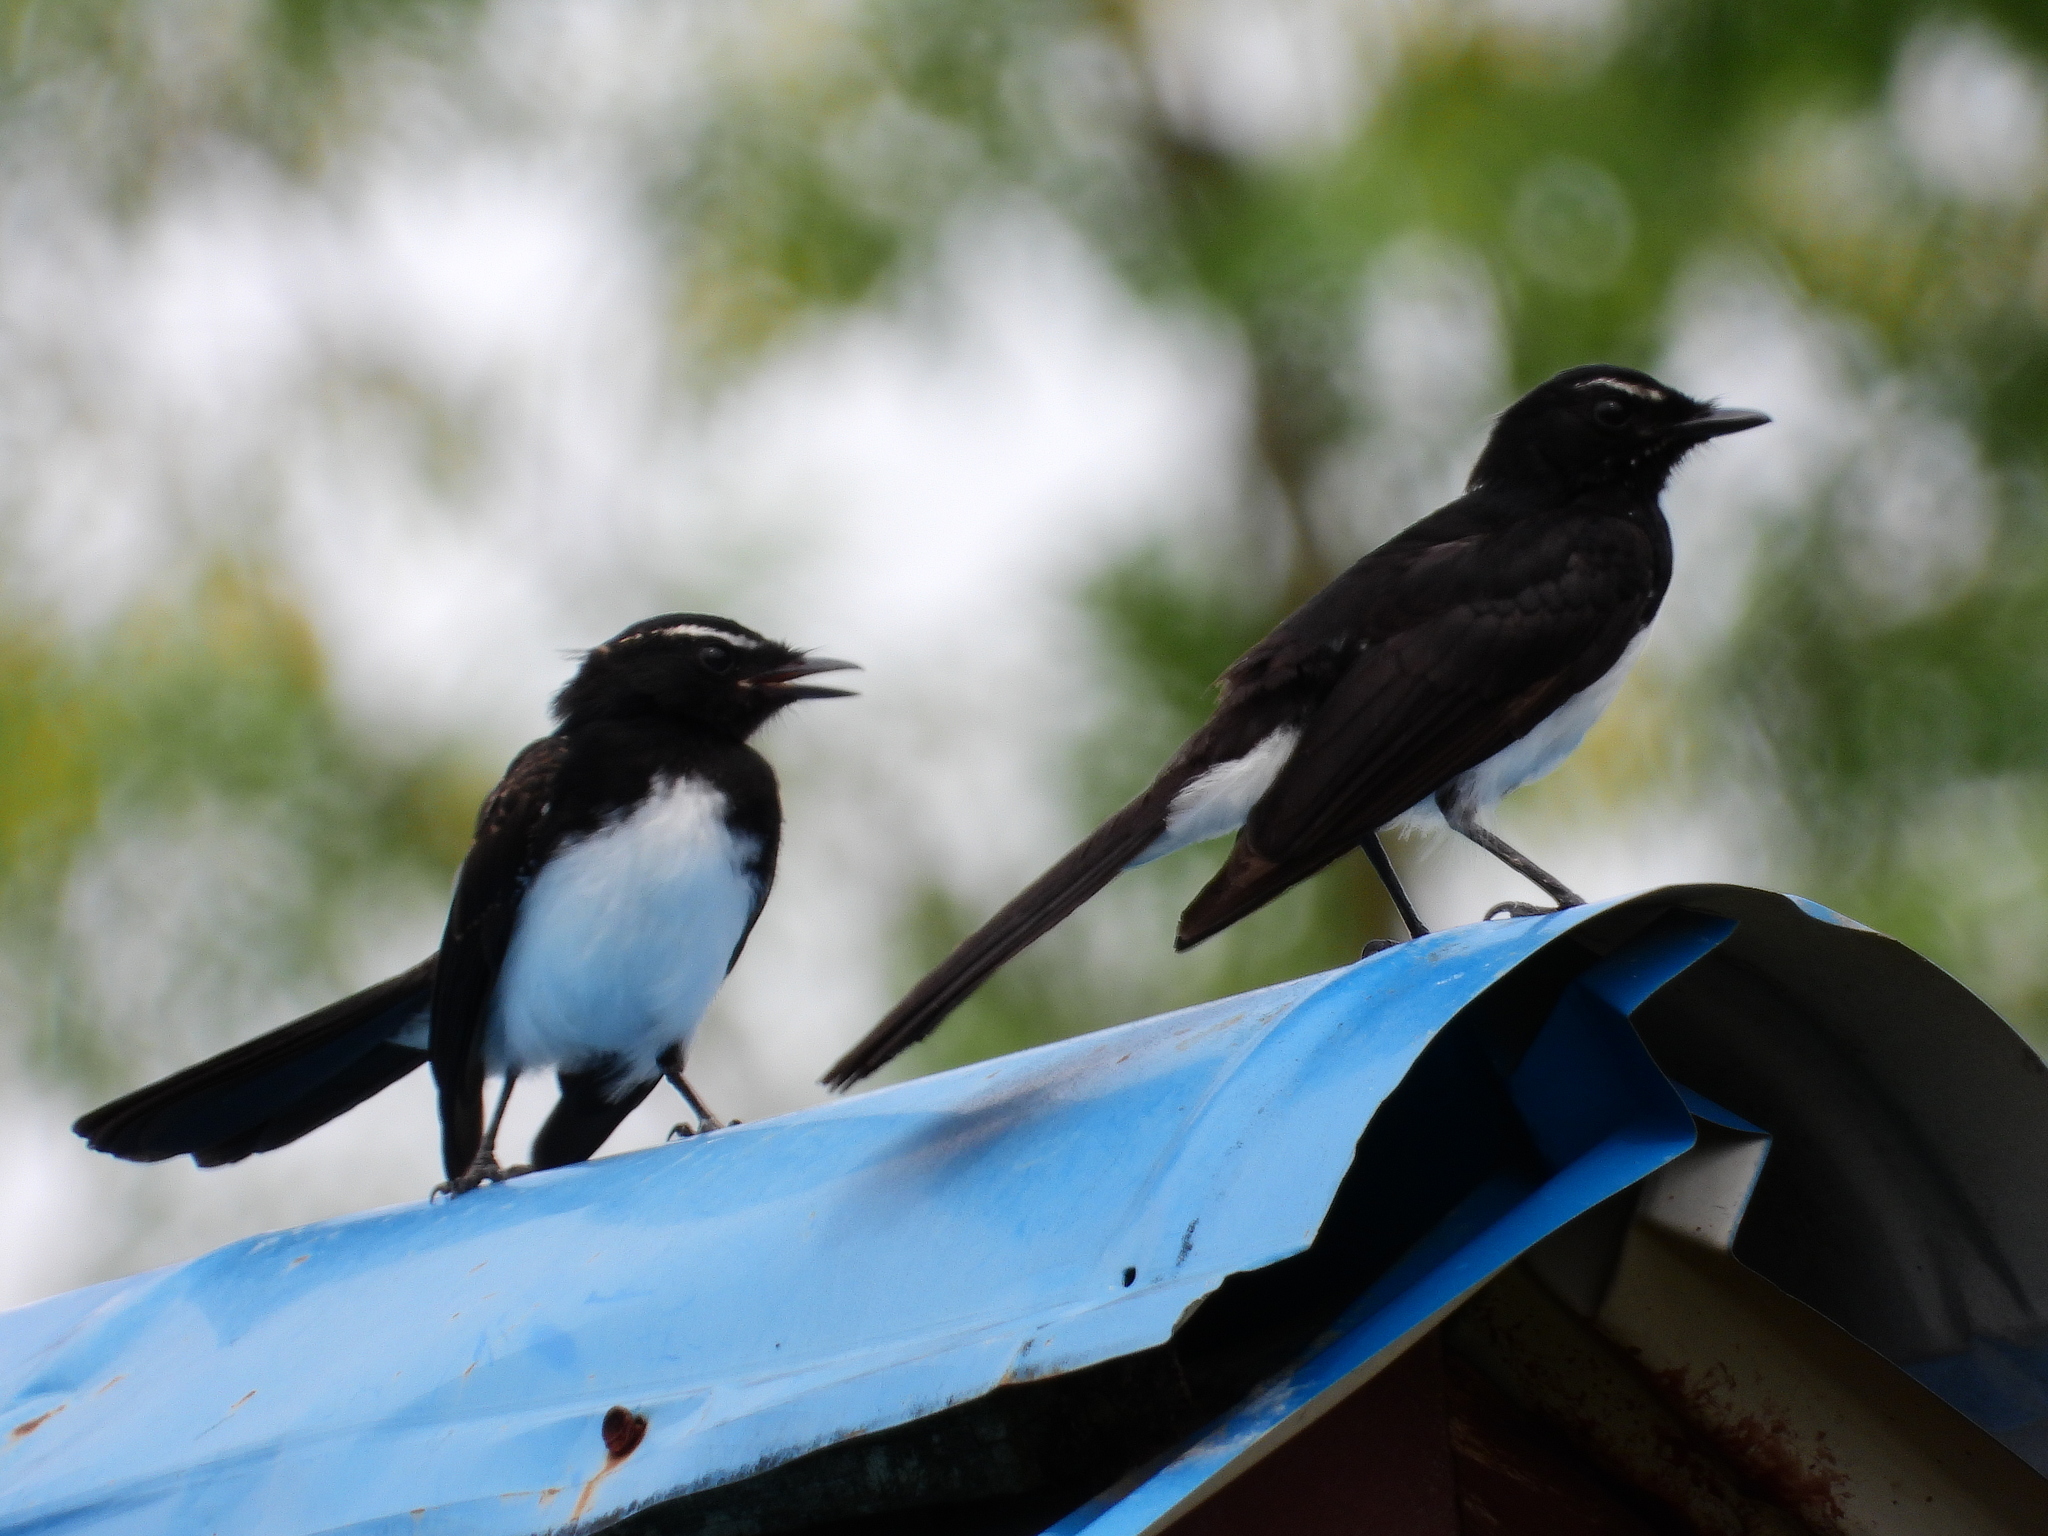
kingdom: Animalia
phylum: Chordata
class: Aves
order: Passeriformes
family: Rhipiduridae
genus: Rhipidura
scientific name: Rhipidura leucophrys
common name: Willie wagtail
